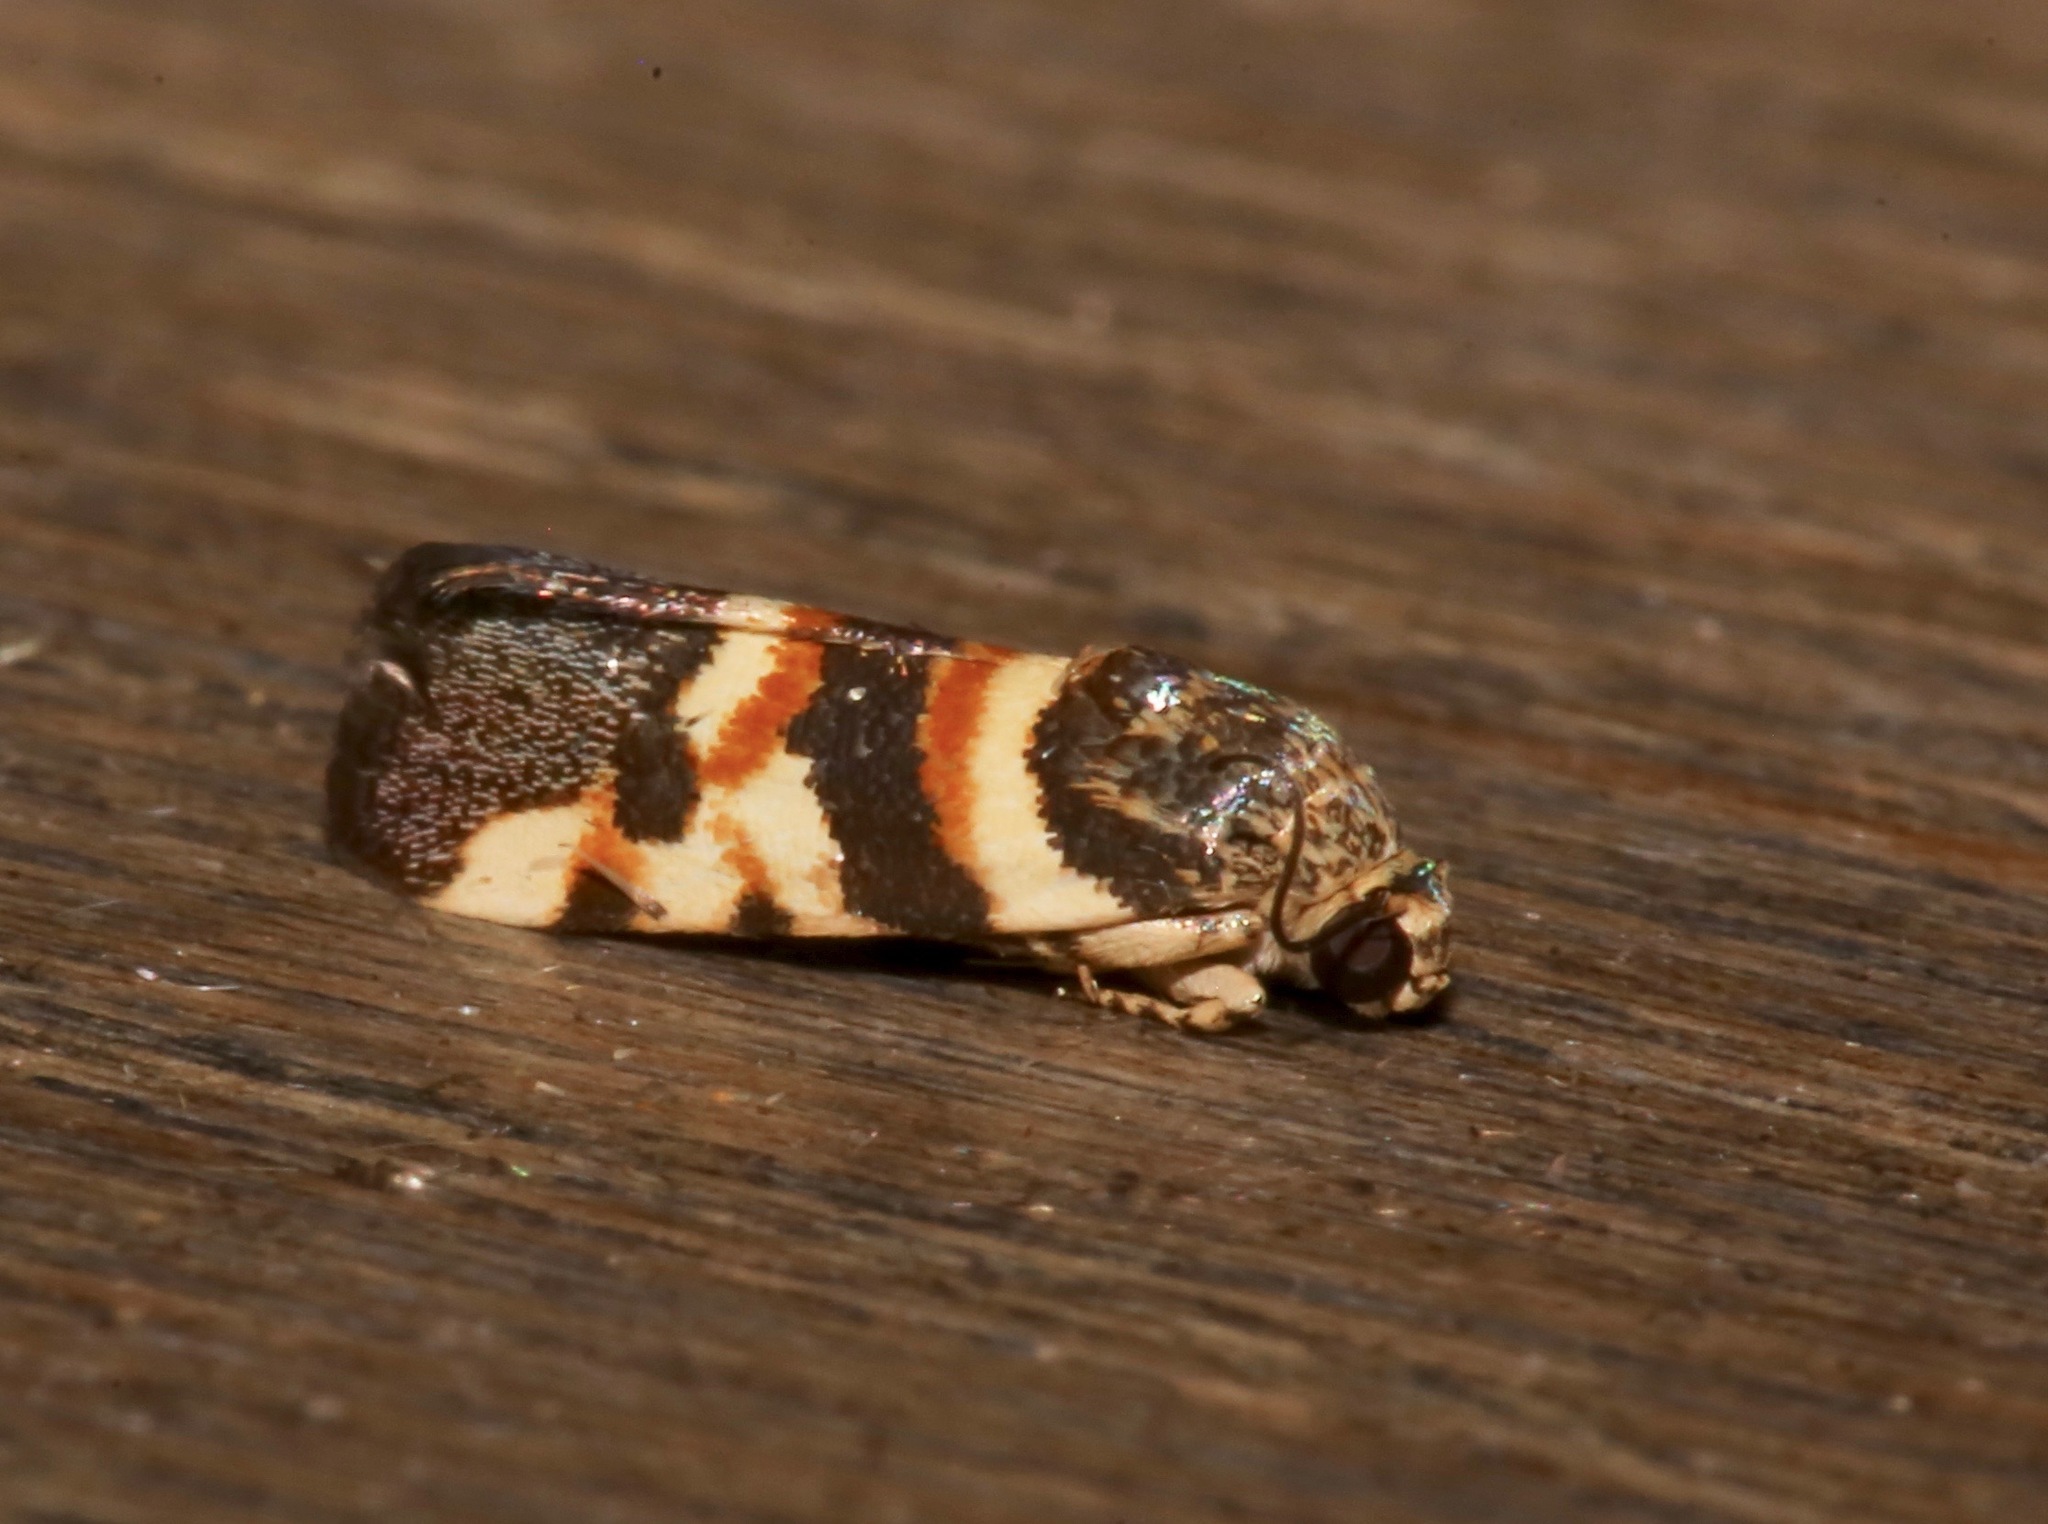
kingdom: Animalia
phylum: Arthropoda
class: Insecta
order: Lepidoptera
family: Noctuidae
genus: Spragueia
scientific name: Spragueia funeralis
